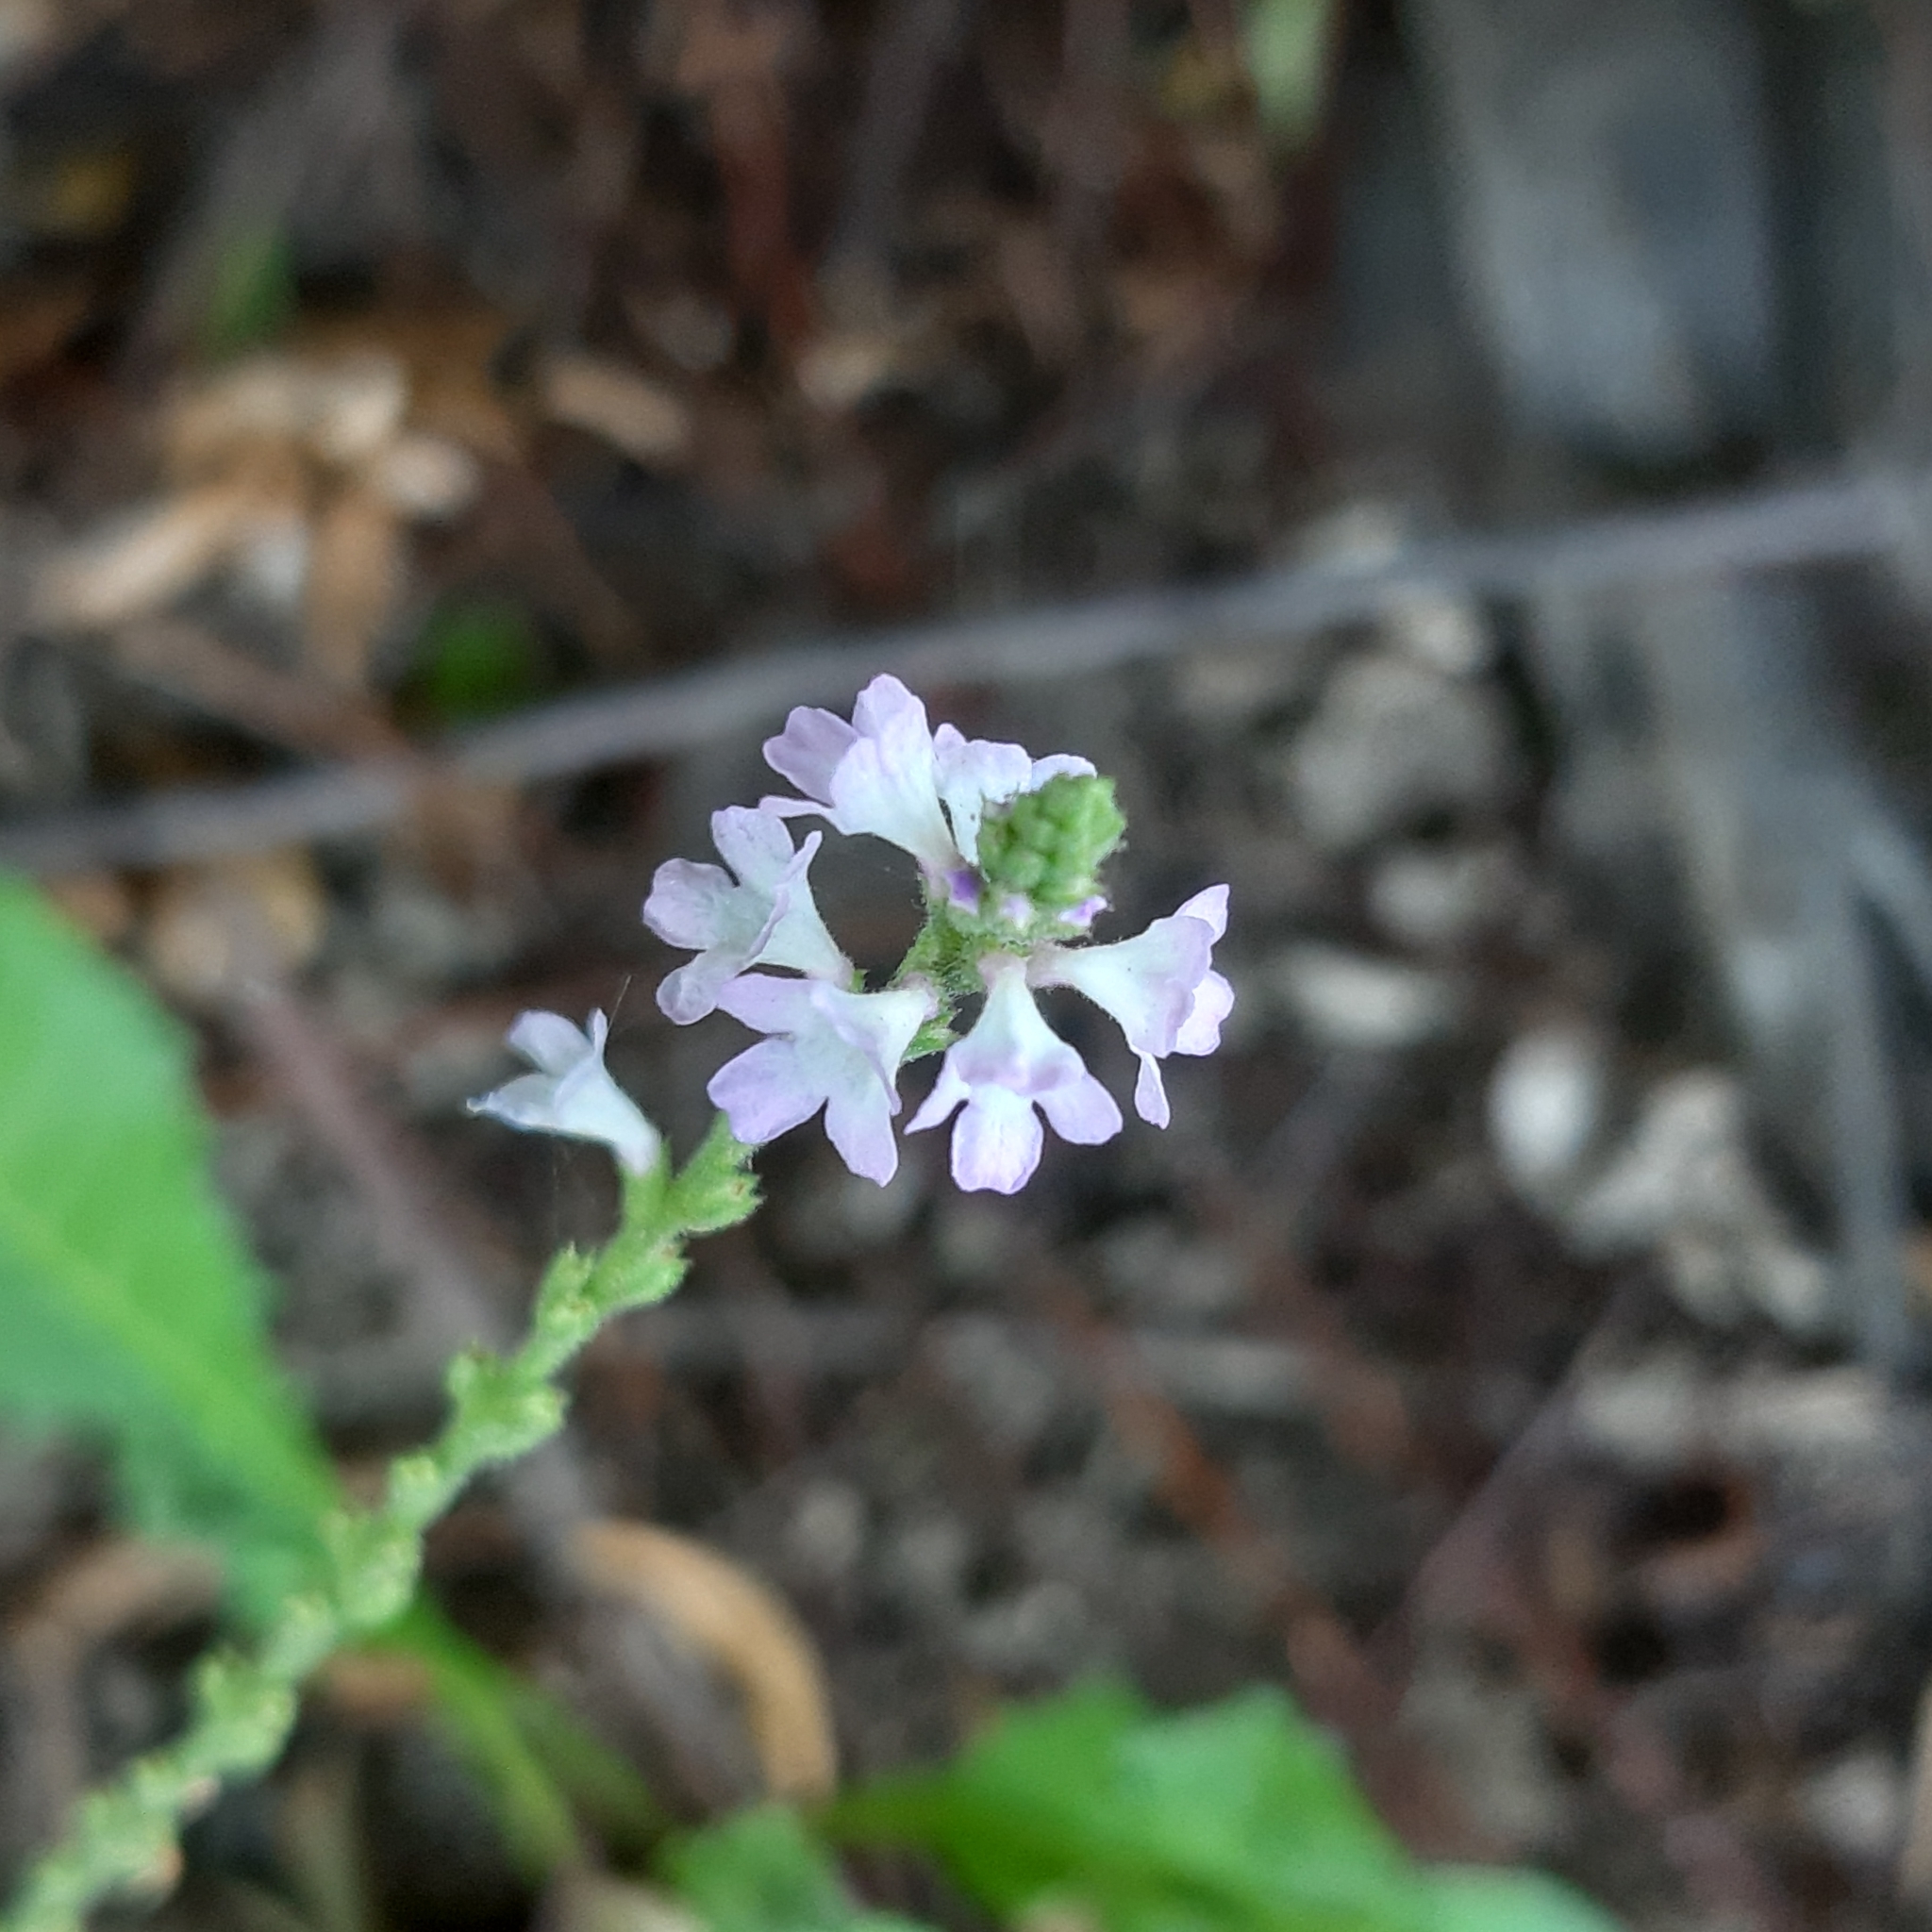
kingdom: Plantae
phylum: Tracheophyta
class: Magnoliopsida
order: Lamiales
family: Verbenaceae
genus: Verbena
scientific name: Verbena officinalis
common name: Vervain
